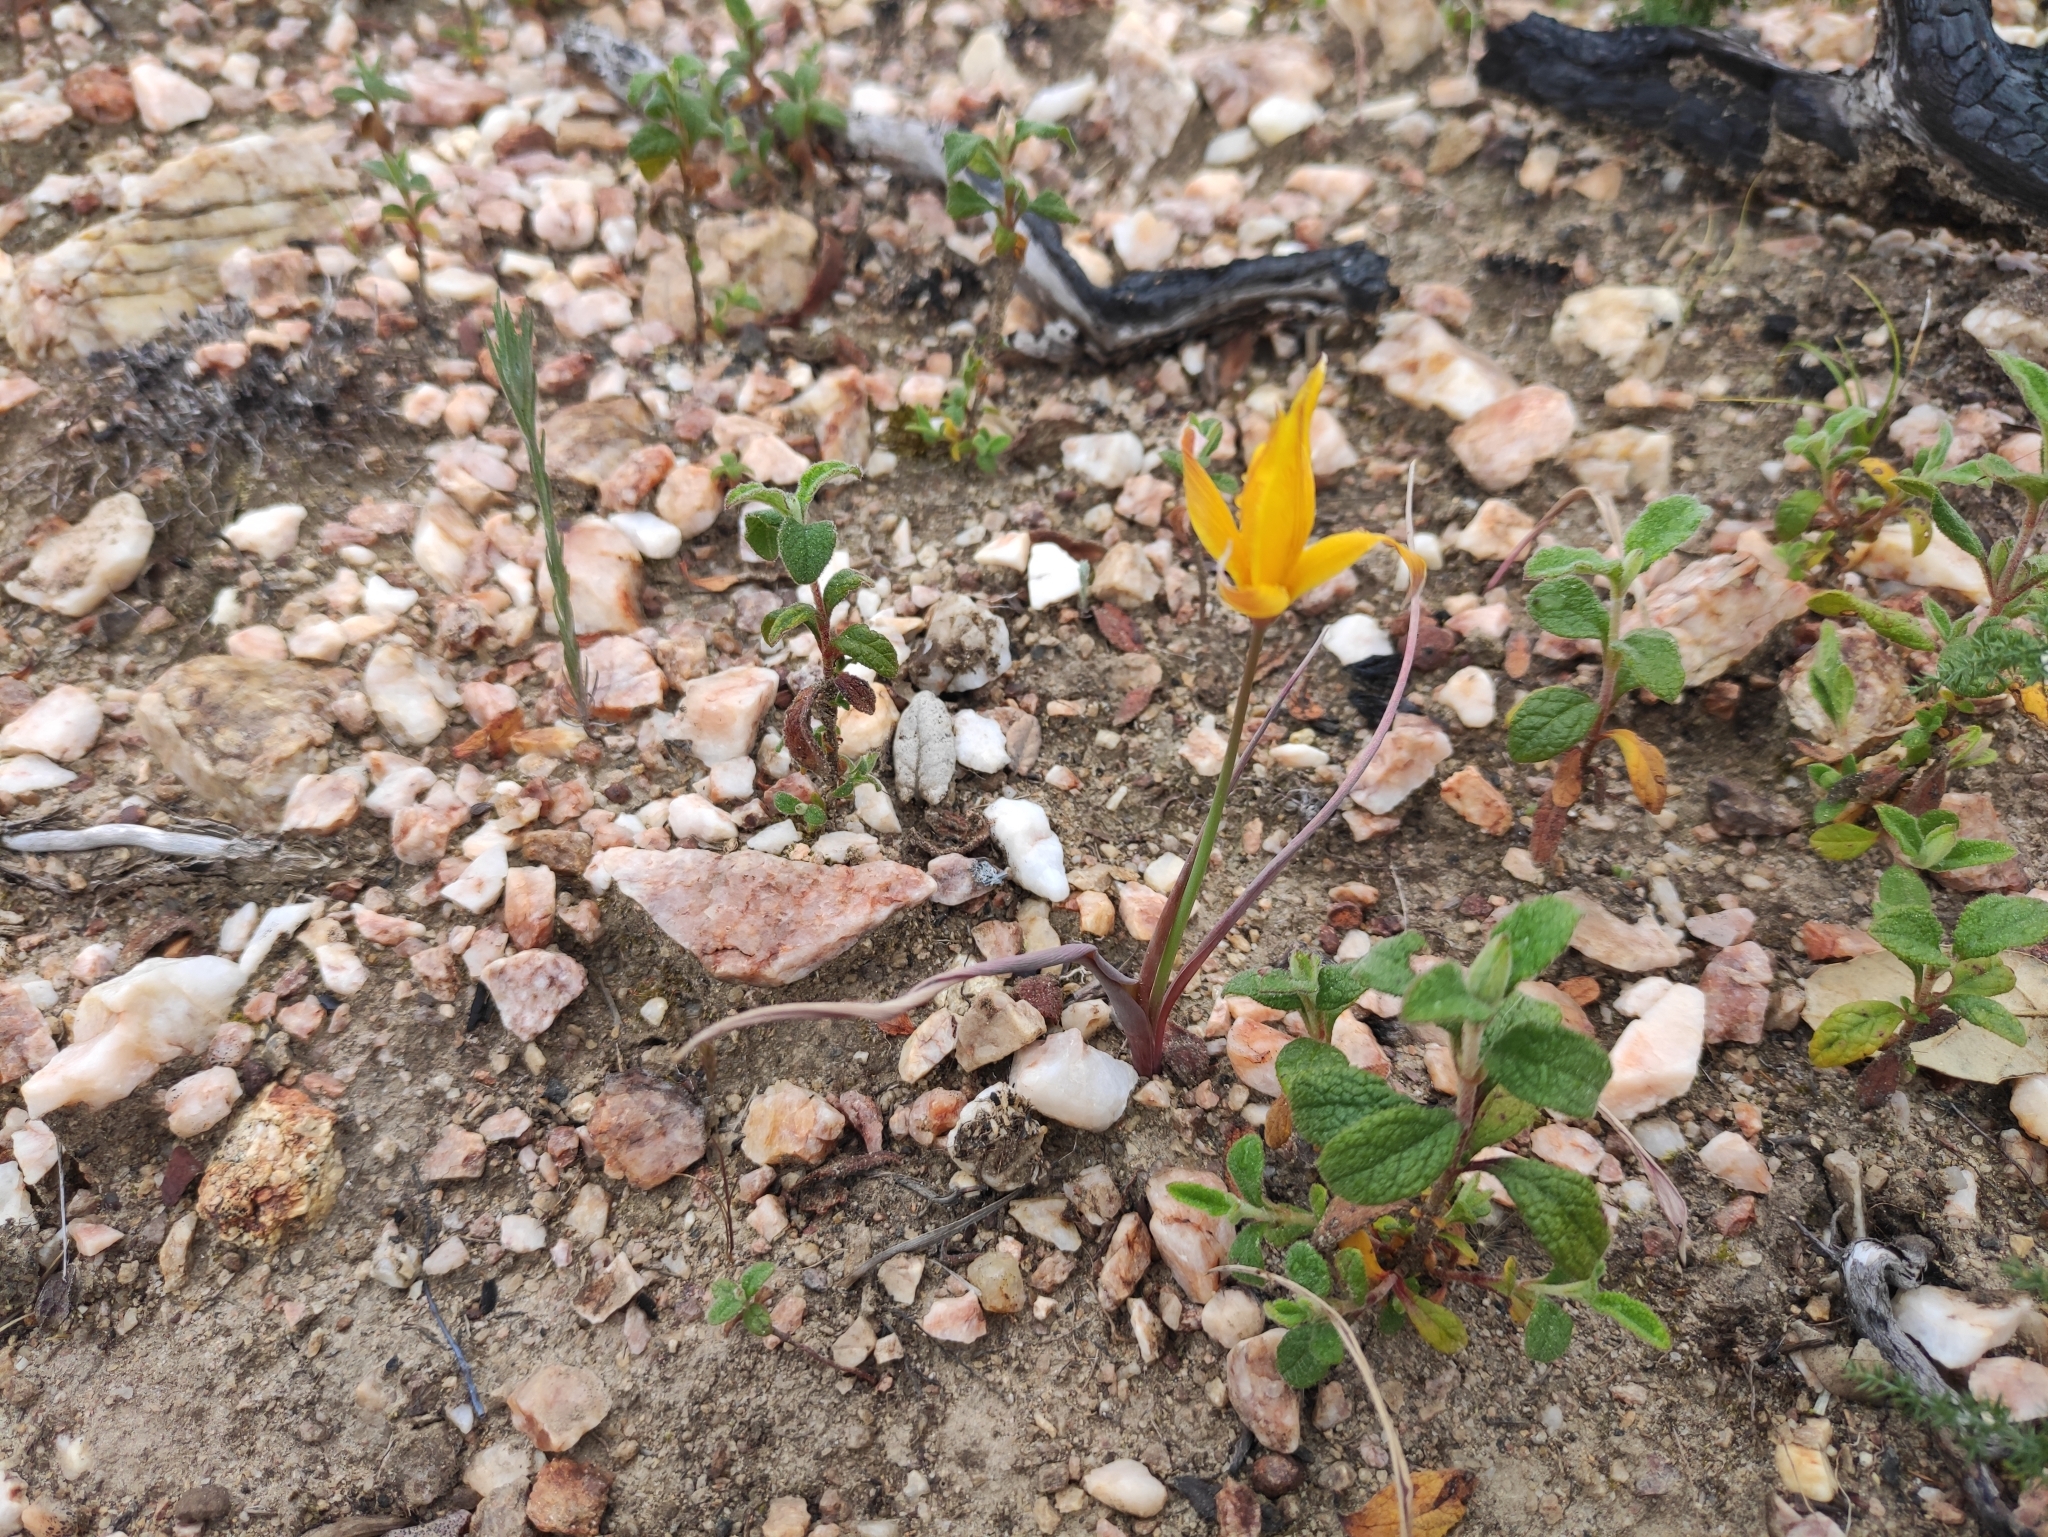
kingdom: Plantae
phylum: Tracheophyta
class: Liliopsida
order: Liliales
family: Liliaceae
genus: Tulipa
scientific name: Tulipa sylvestris
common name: Wild tulip
